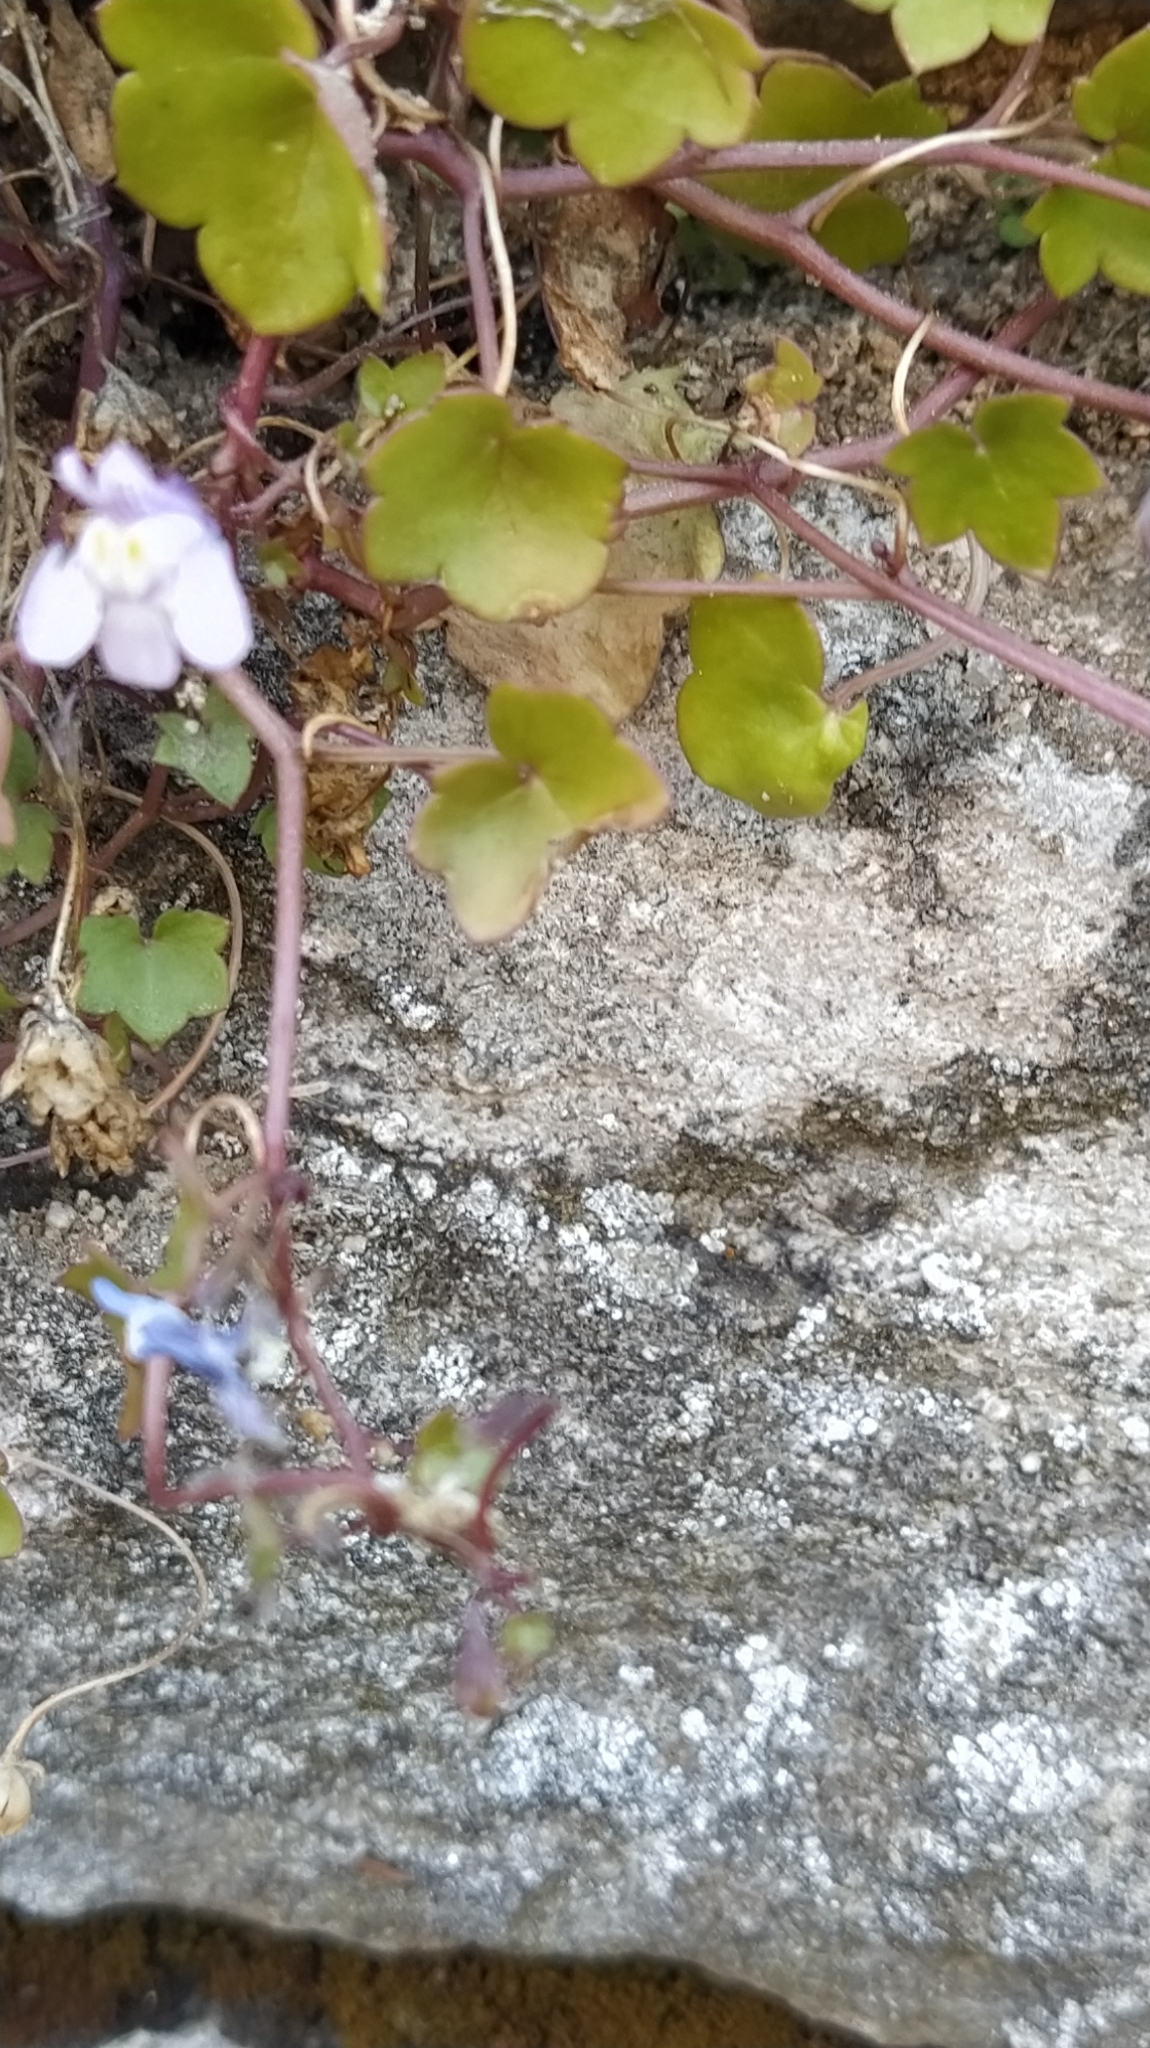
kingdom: Plantae
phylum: Tracheophyta
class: Magnoliopsida
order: Lamiales
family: Plantaginaceae
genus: Cymbalaria
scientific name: Cymbalaria muralis
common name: Ivy-leaved toadflax
